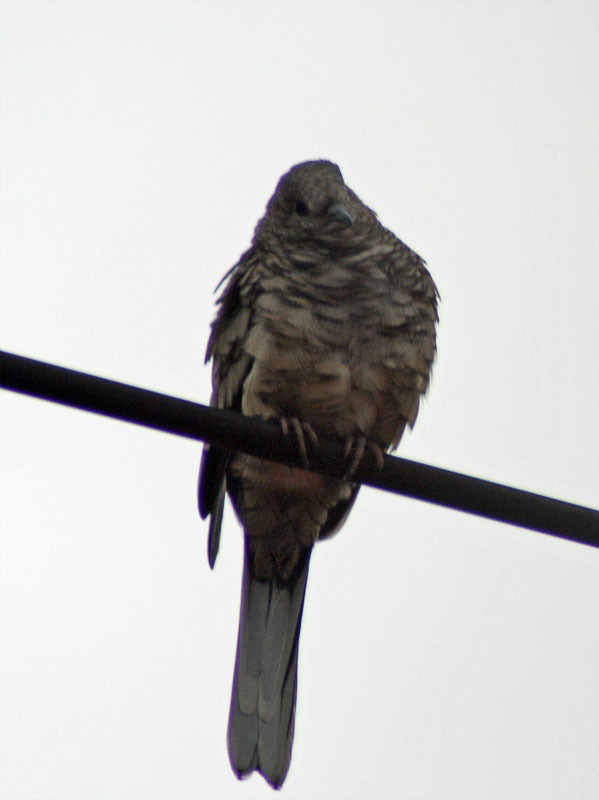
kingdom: Animalia
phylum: Chordata
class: Aves
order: Columbiformes
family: Columbidae
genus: Columbina
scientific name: Columbina inca
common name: Inca dove
